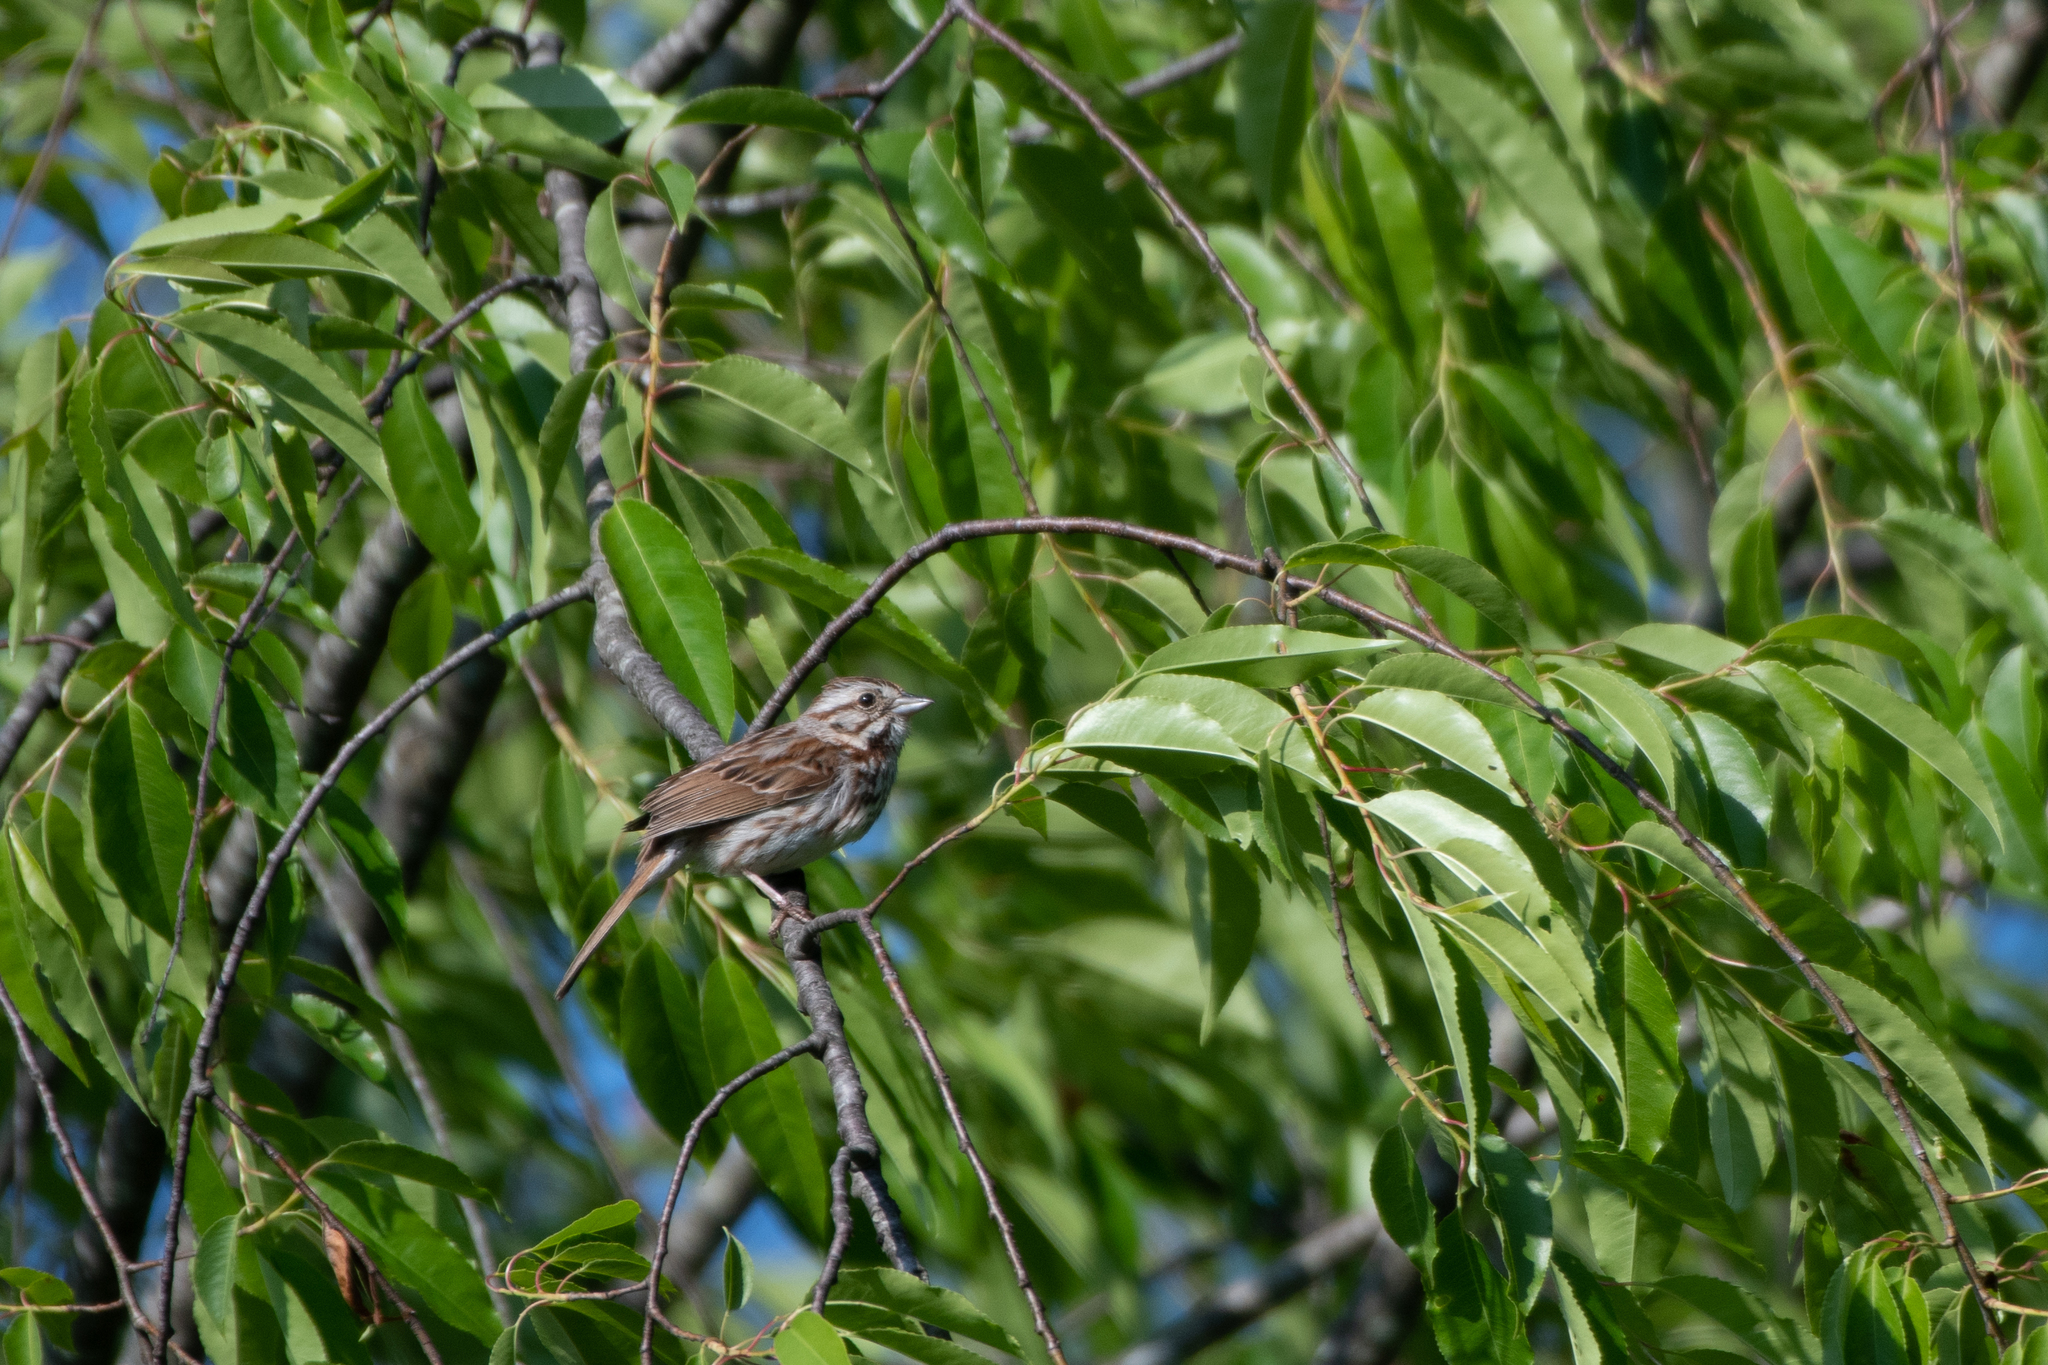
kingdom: Animalia
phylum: Chordata
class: Aves
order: Passeriformes
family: Passerellidae
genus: Melospiza
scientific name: Melospiza melodia
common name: Song sparrow
